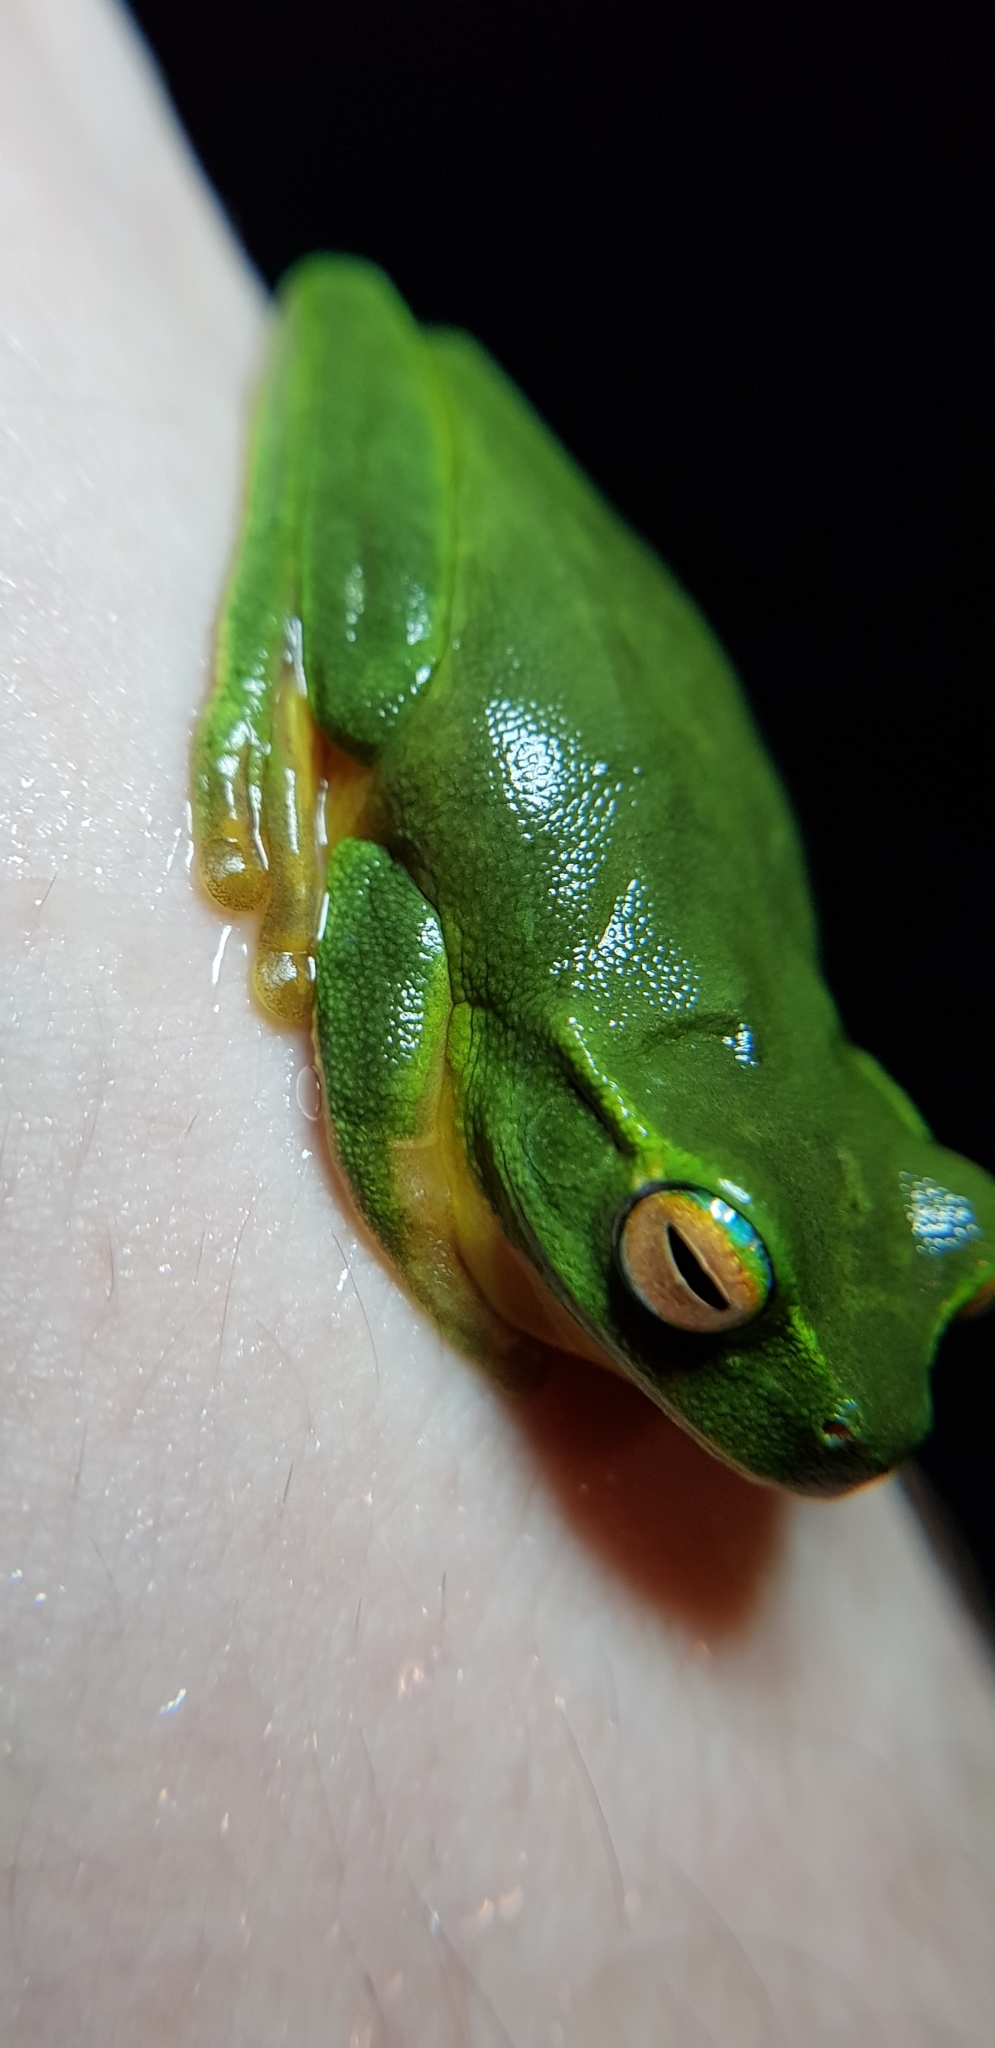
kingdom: Animalia
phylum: Chordata
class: Amphibia
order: Anura
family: Pelodryadidae
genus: Ranoidea
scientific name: Ranoidea gracilenta
